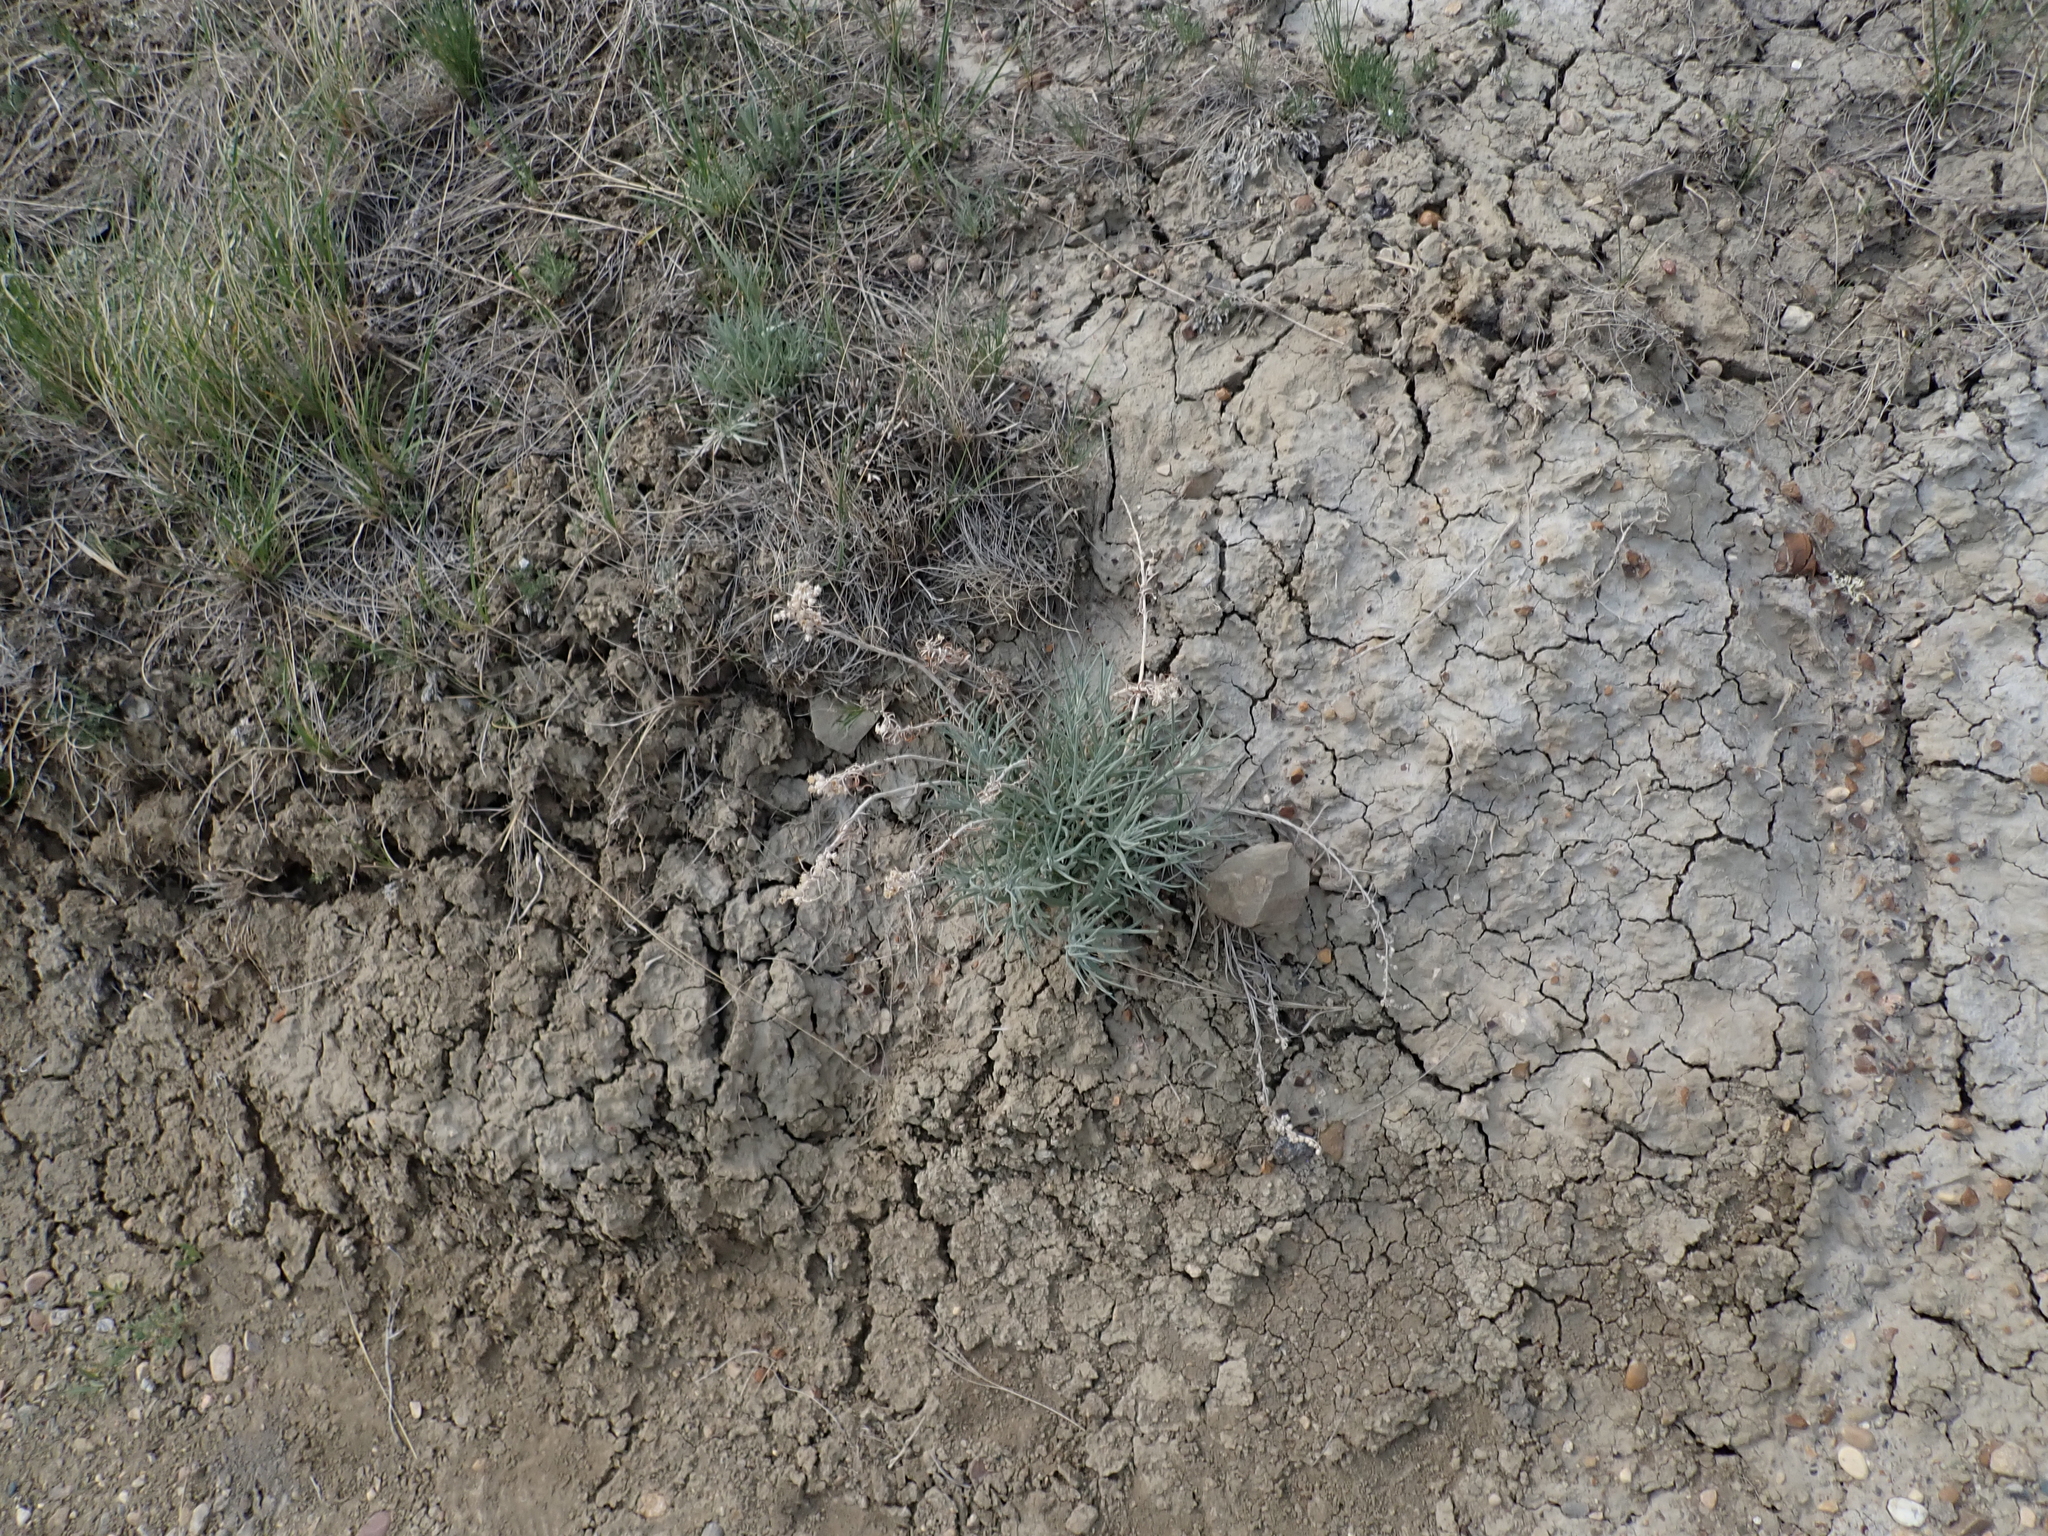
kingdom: Plantae
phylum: Tracheophyta
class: Magnoliopsida
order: Asterales
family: Asteraceae
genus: Artemisia
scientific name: Artemisia longifolia
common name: Long-leaved mugwort
